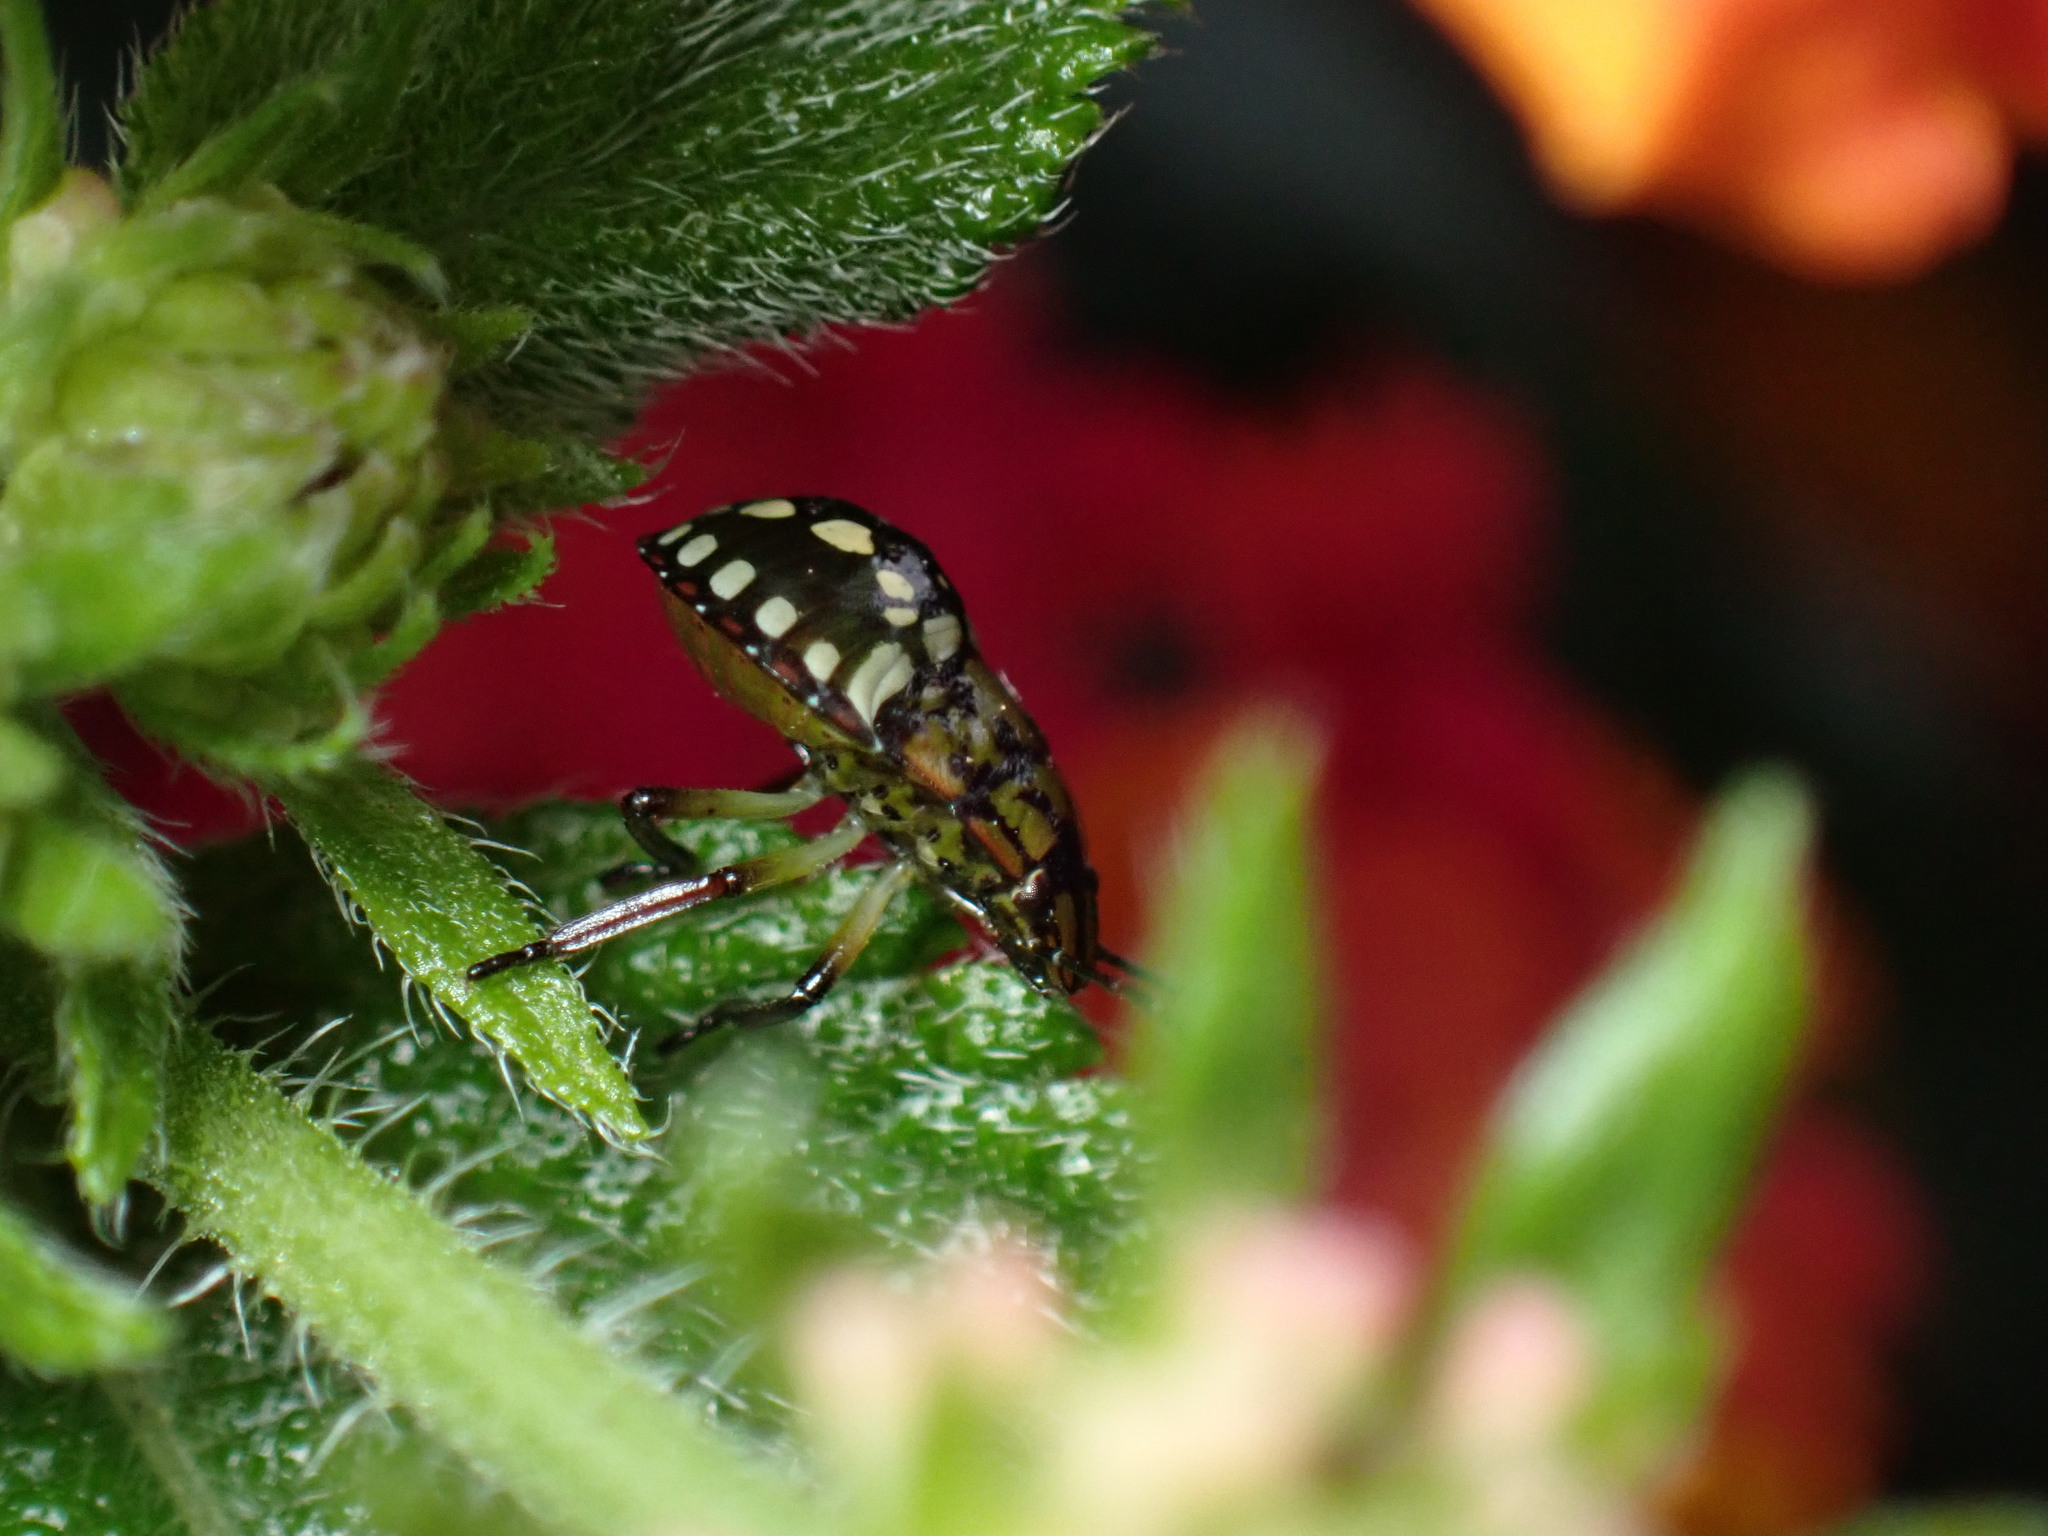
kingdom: Animalia
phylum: Arthropoda
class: Insecta
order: Hemiptera
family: Pentatomidae
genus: Nezara
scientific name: Nezara viridula
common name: Southern green stink bug
